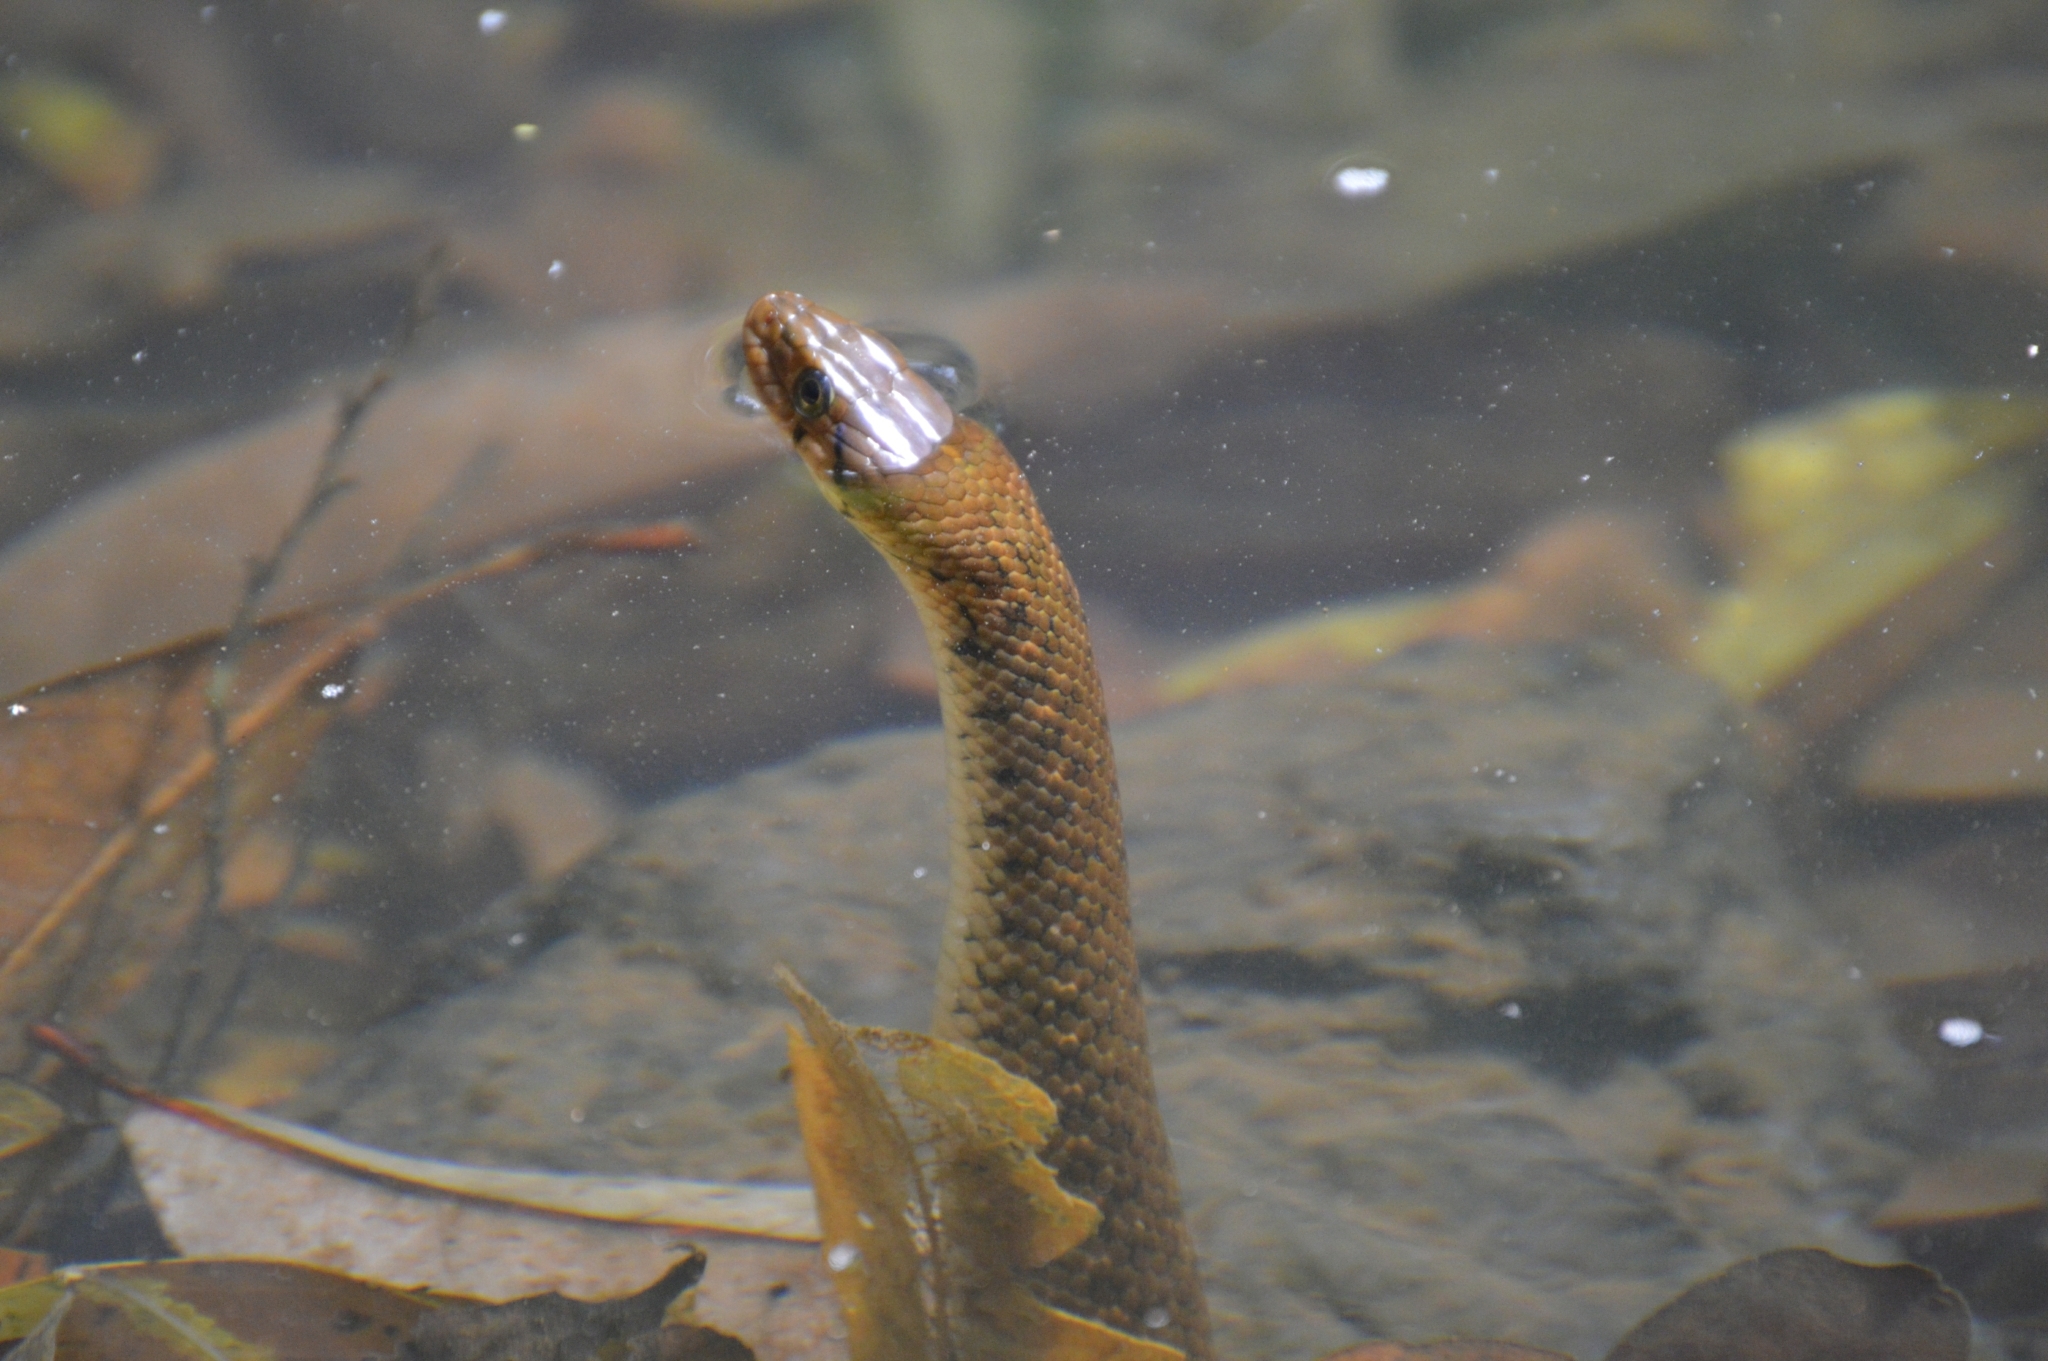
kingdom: Animalia
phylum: Chordata
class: Squamata
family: Colubridae
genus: Fowlea
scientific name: Fowlea piscator
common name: Asiatic water snake
